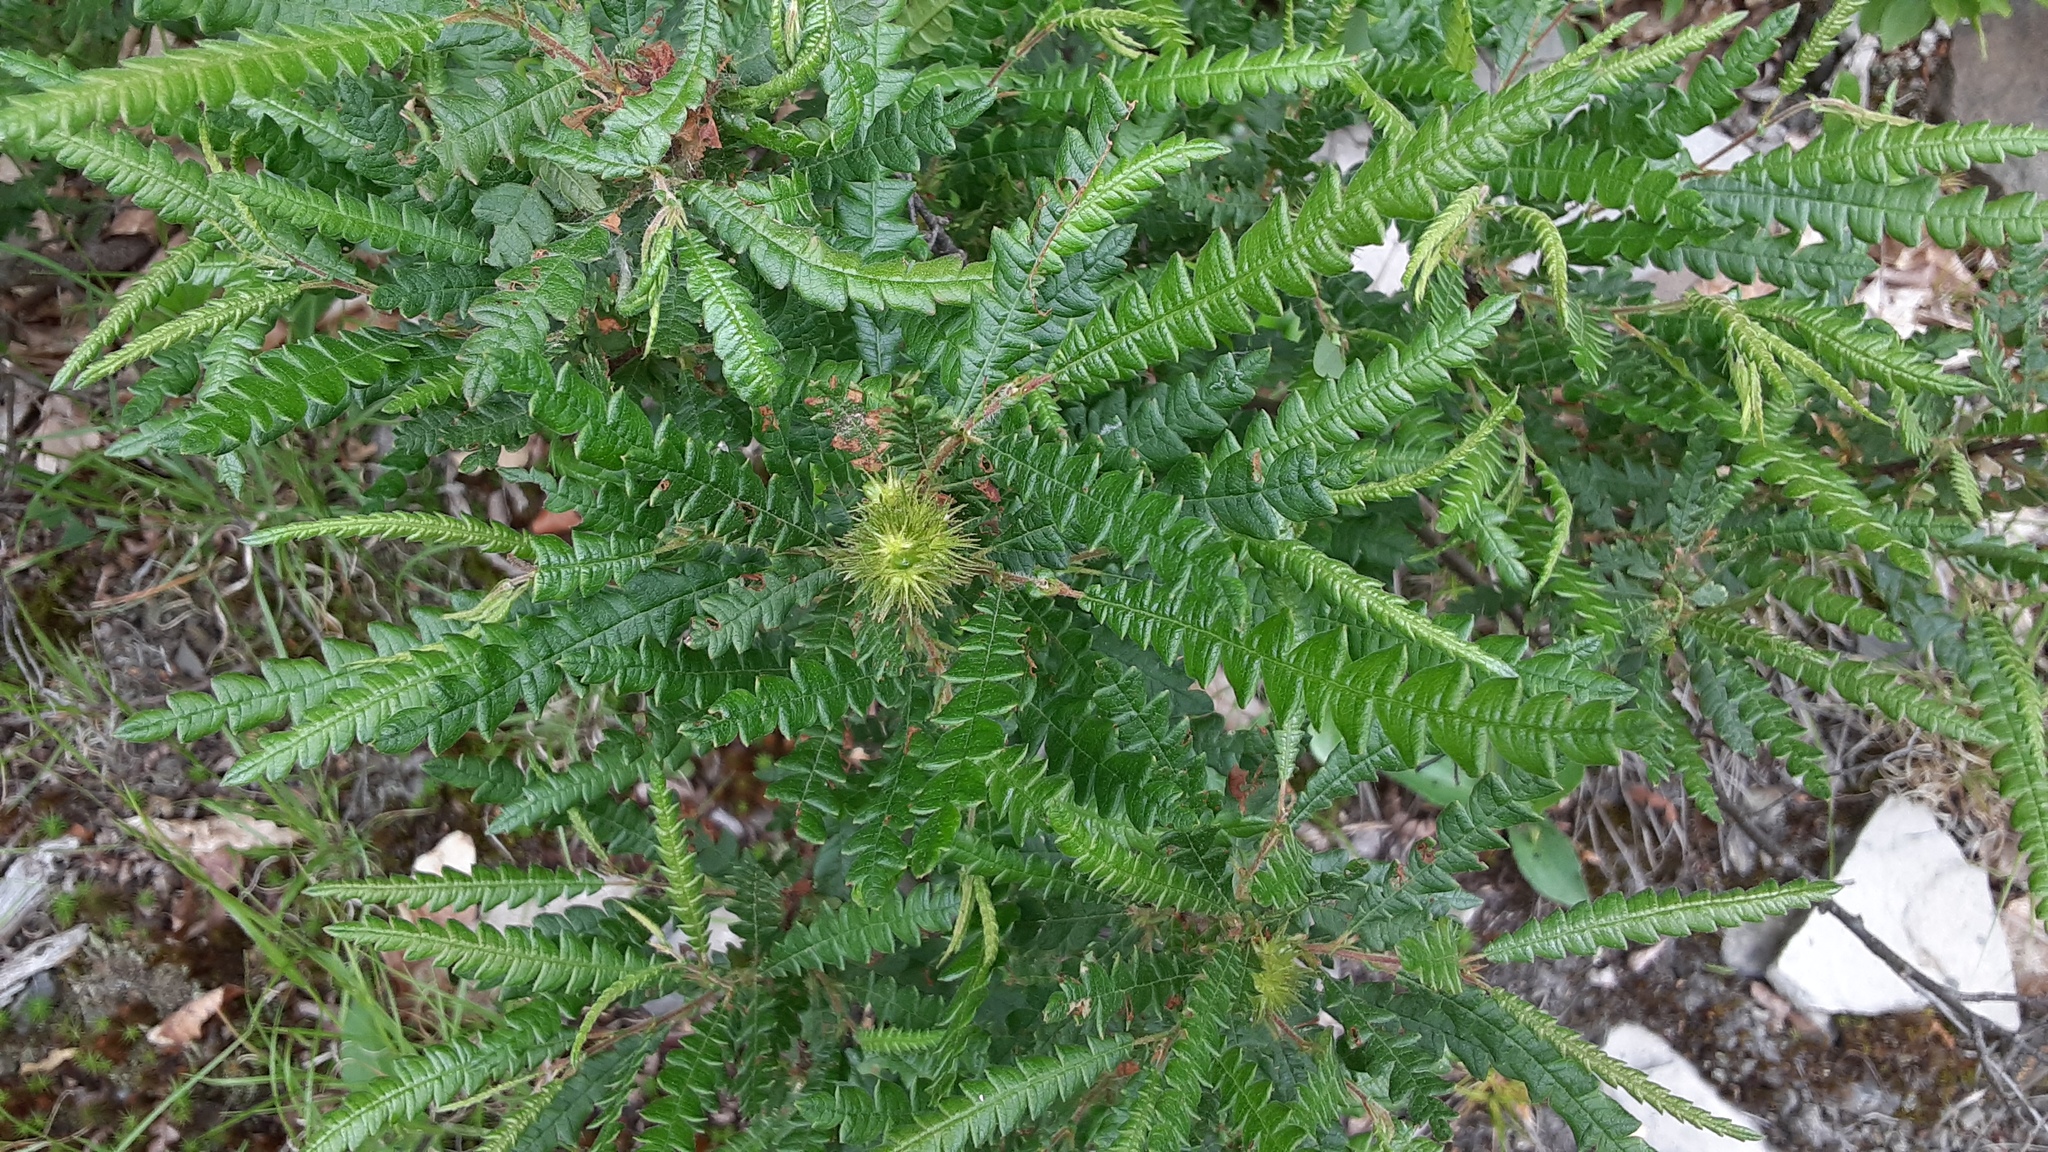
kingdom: Plantae
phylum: Tracheophyta
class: Magnoliopsida
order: Fagales
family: Myricaceae
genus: Comptonia
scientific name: Comptonia peregrina
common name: Sweet-fern
